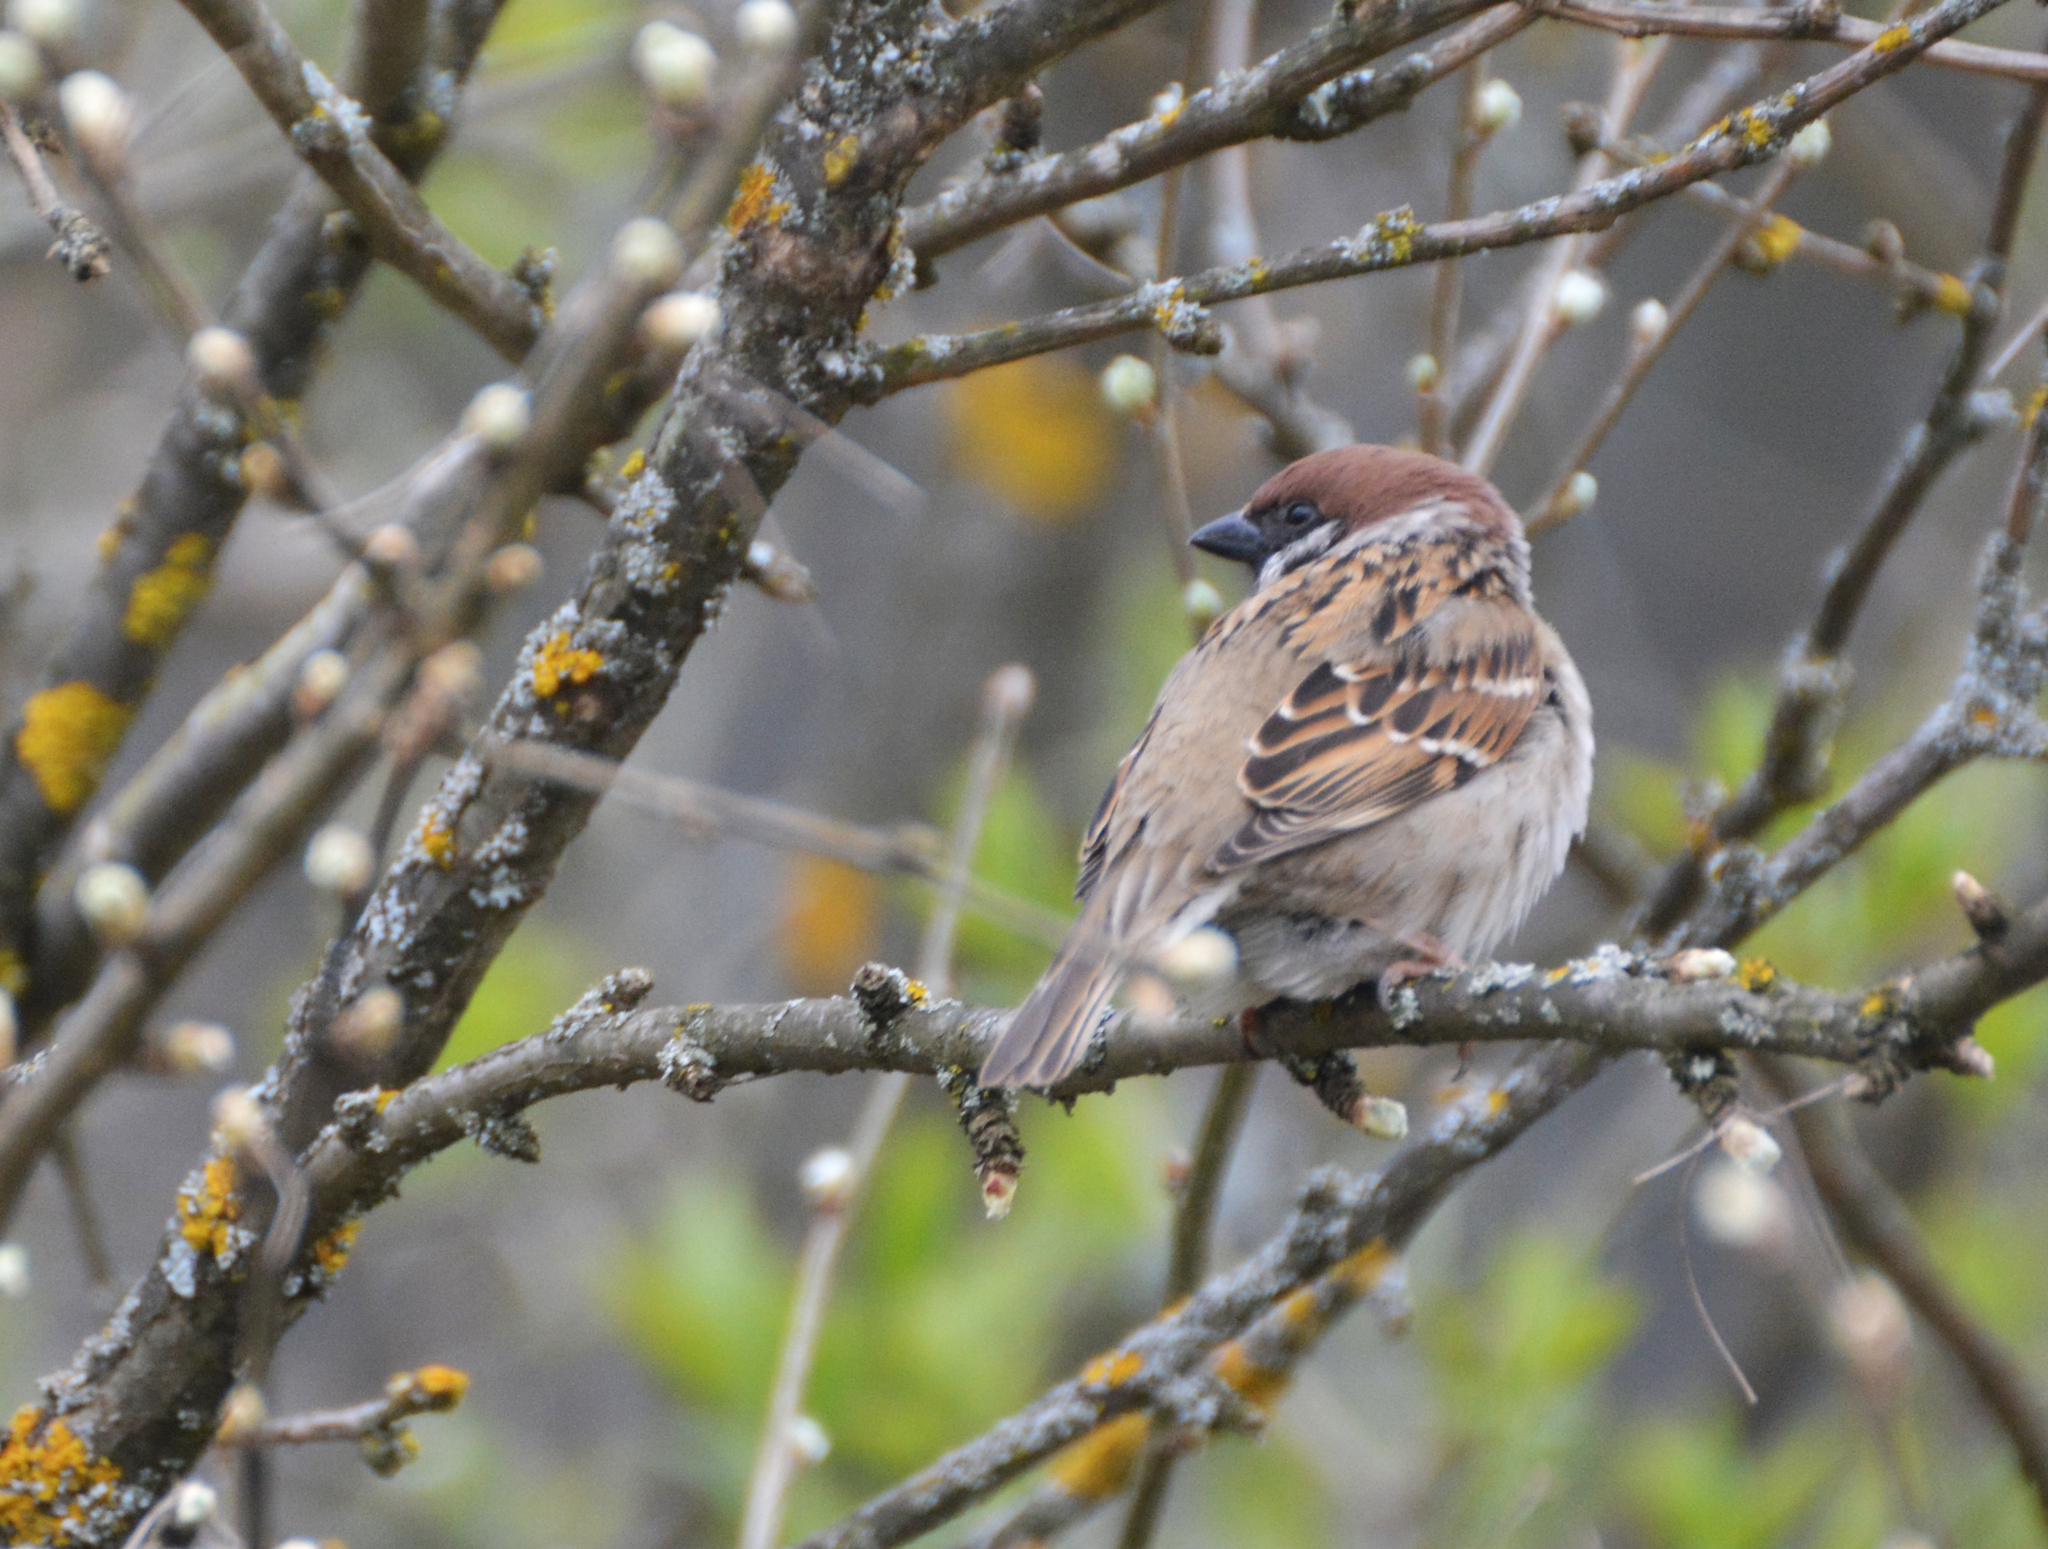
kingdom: Animalia
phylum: Chordata
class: Aves
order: Passeriformes
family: Passeridae
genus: Passer
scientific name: Passer montanus
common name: Eurasian tree sparrow
